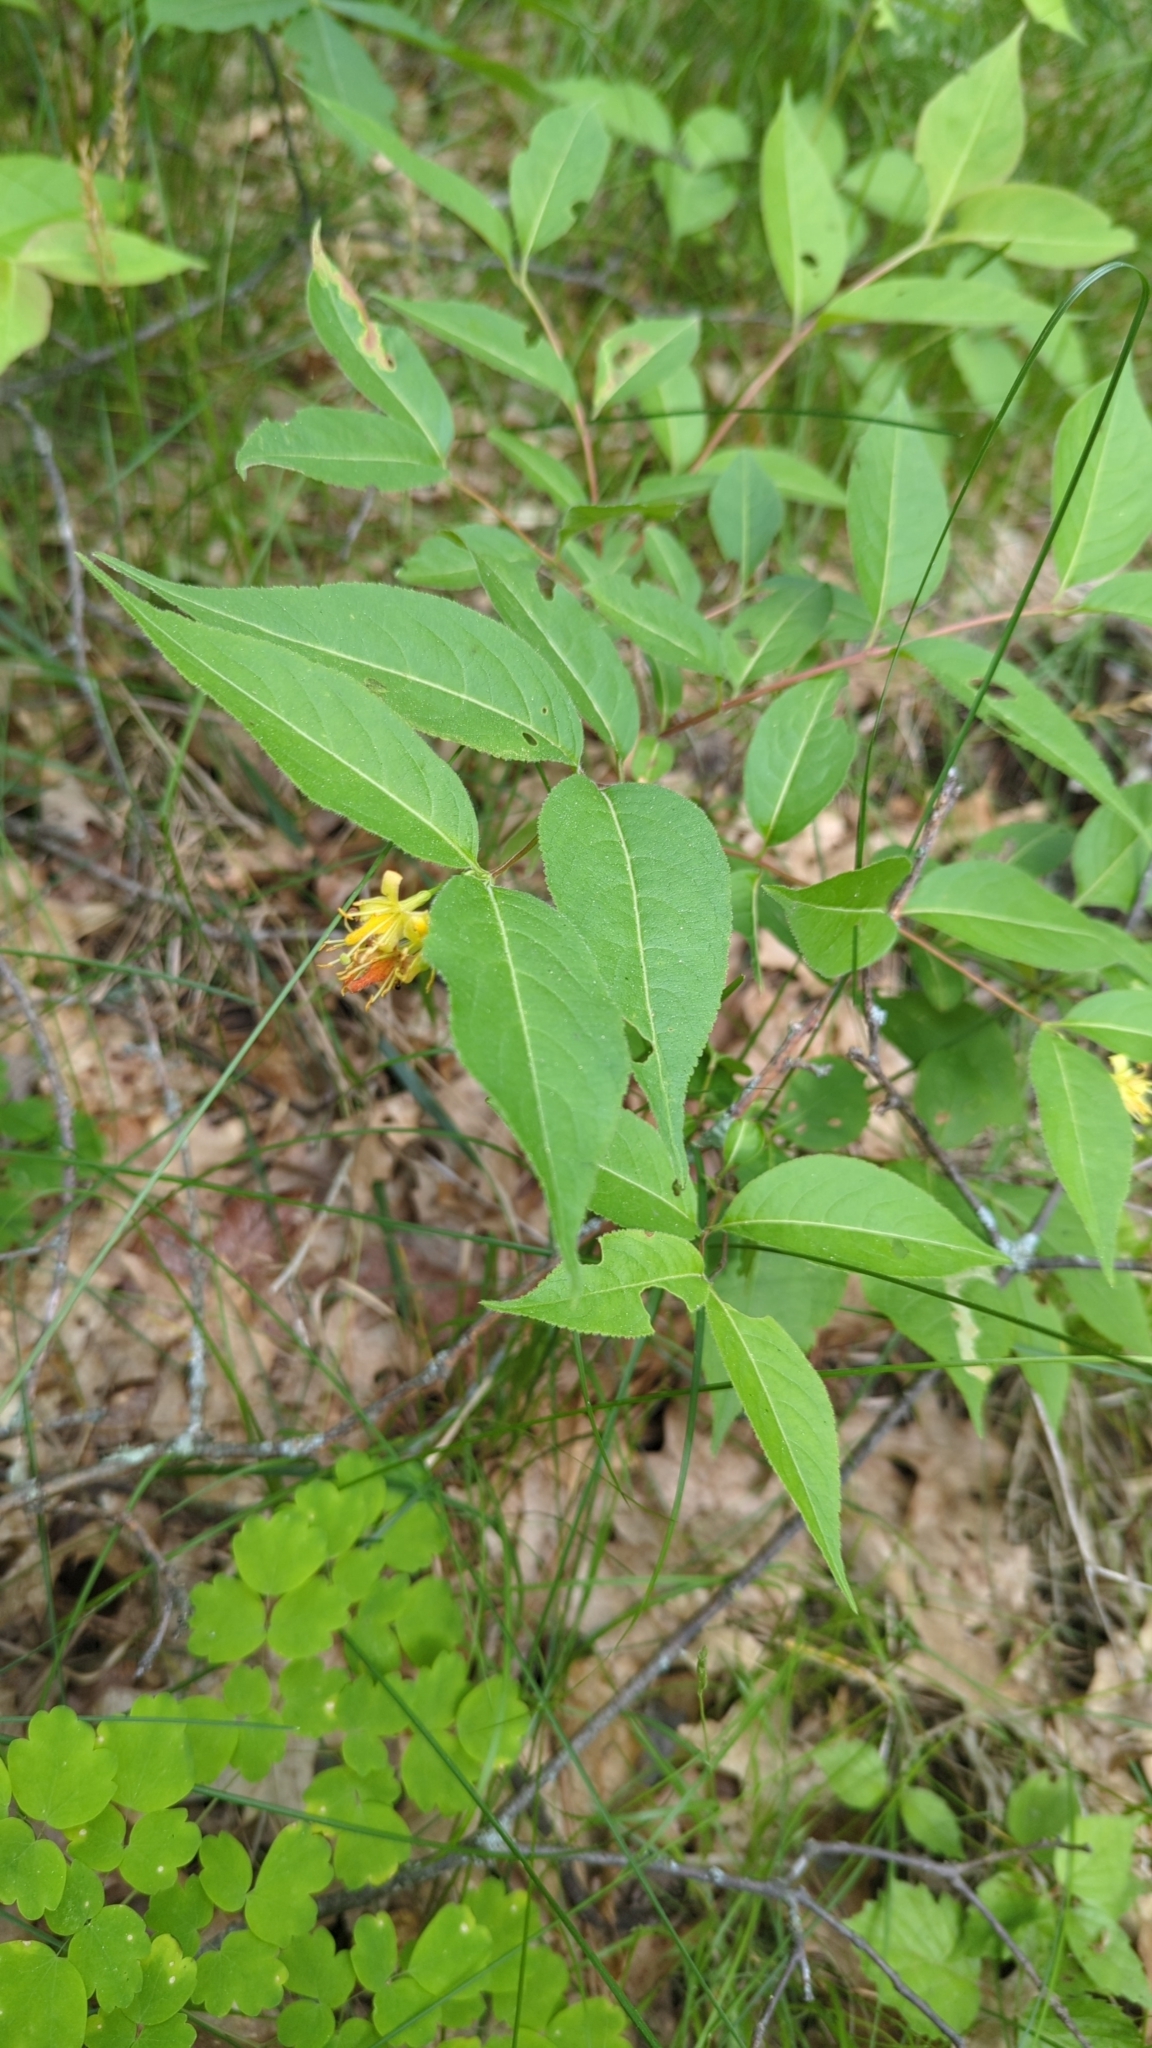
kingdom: Plantae
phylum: Tracheophyta
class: Magnoliopsida
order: Dipsacales
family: Caprifoliaceae
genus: Diervilla
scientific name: Diervilla lonicera
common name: Bush-honeysuckle
